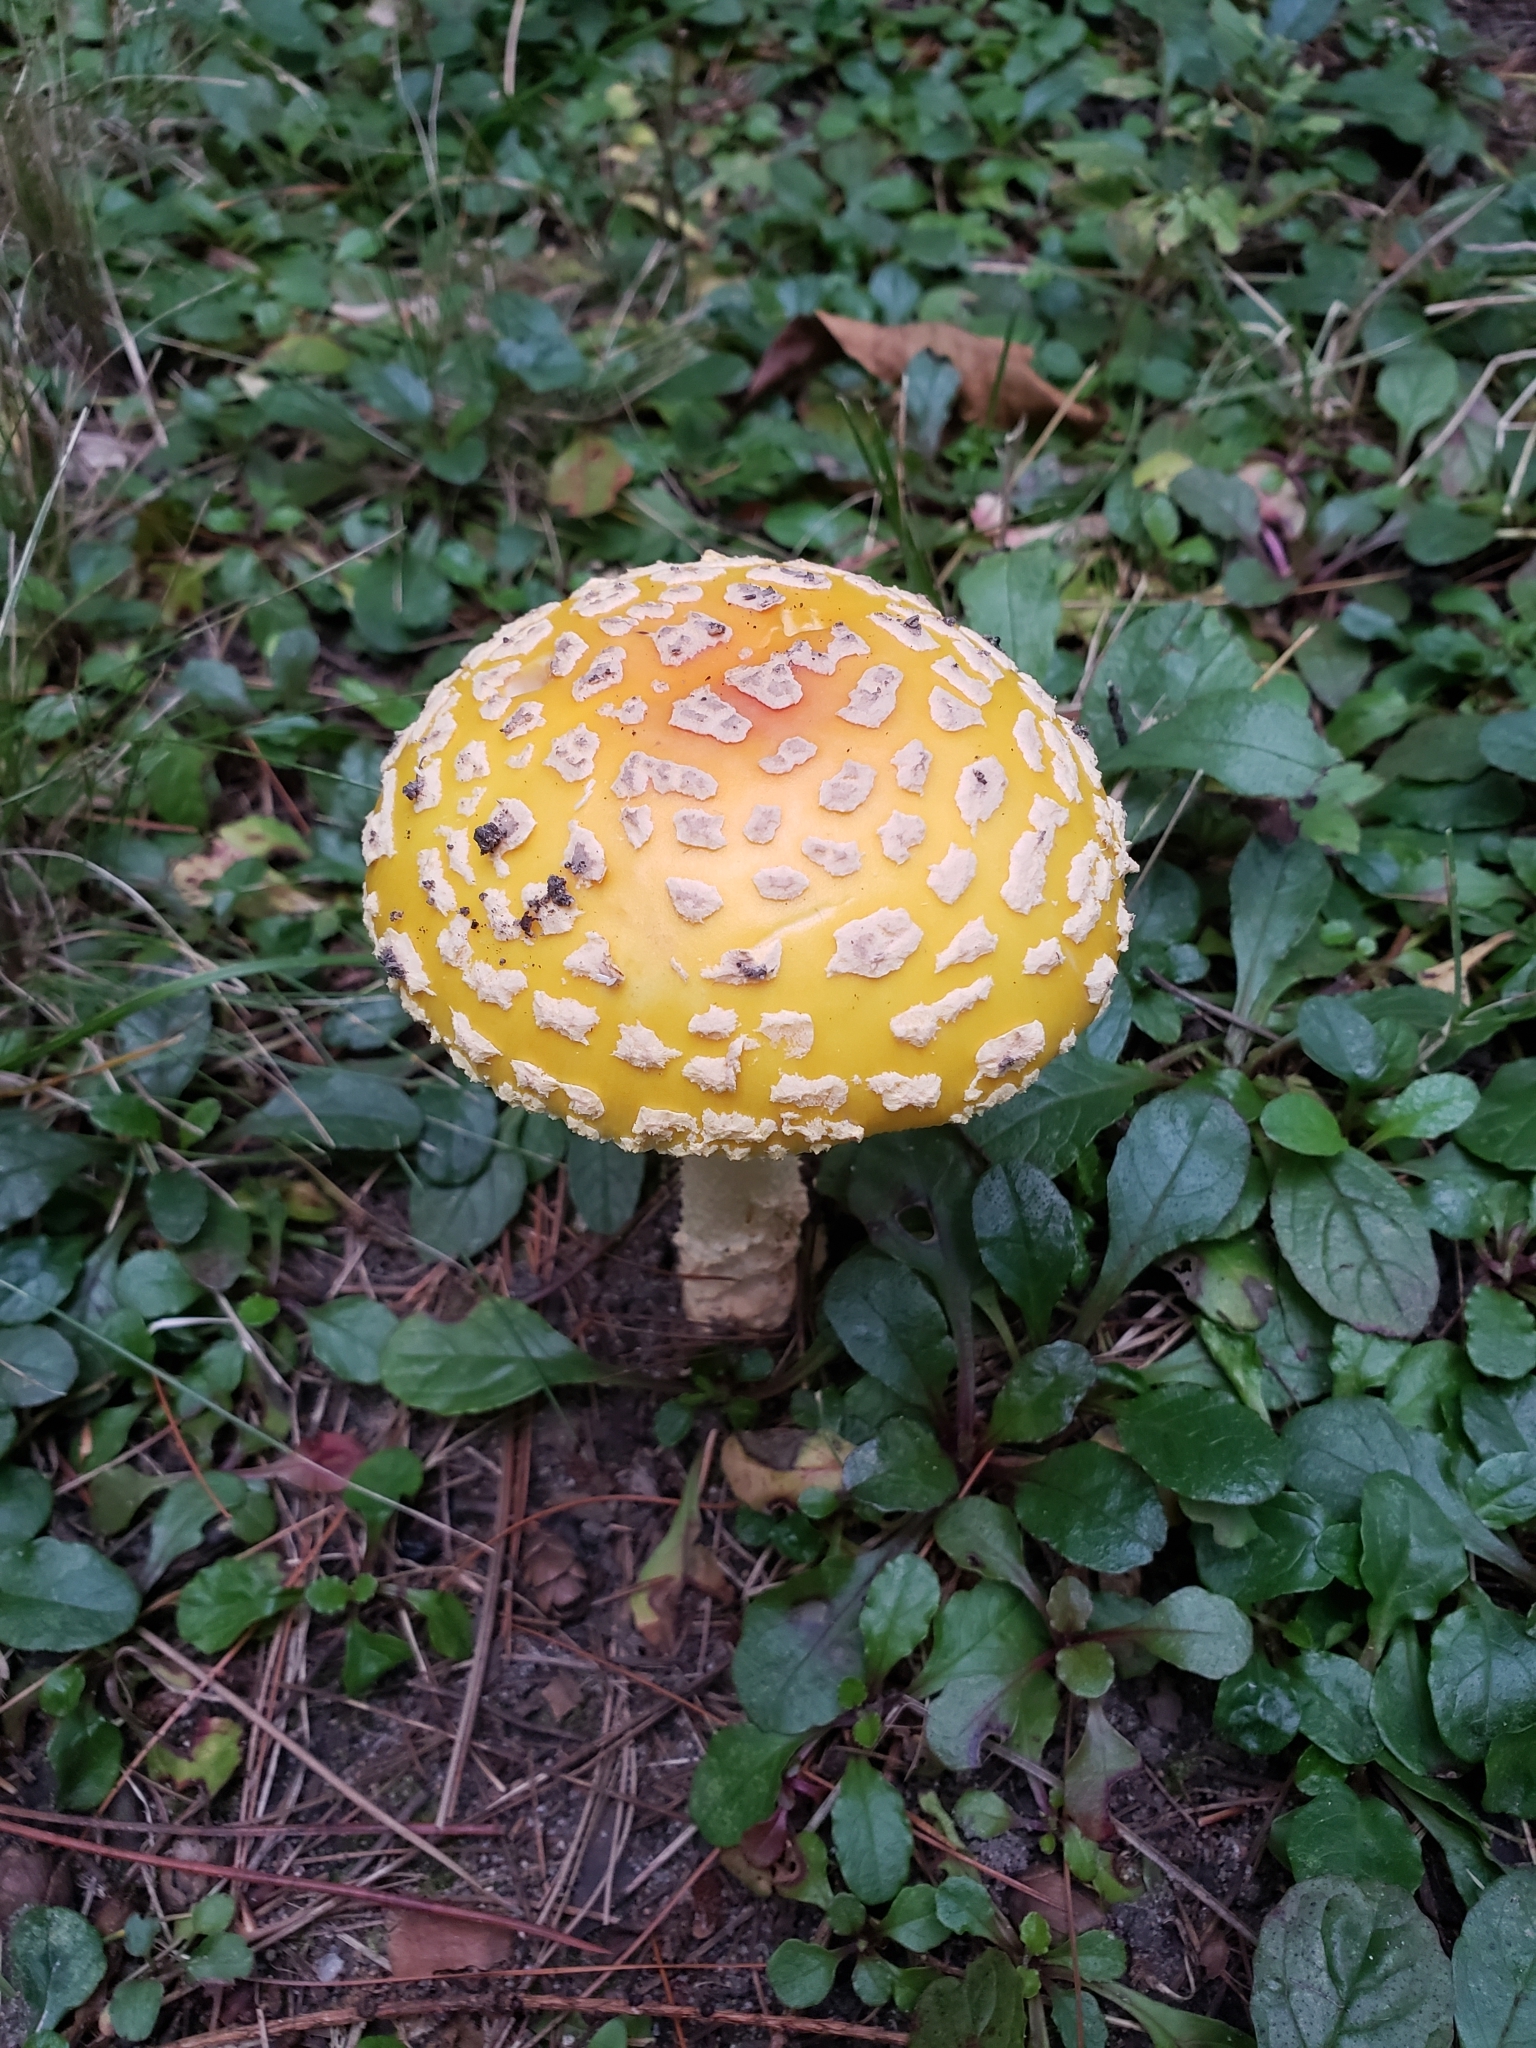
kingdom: Fungi
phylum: Basidiomycota
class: Agaricomycetes
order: Agaricales
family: Amanitaceae
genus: Amanita
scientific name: Amanita muscaria
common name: Fly agaric
